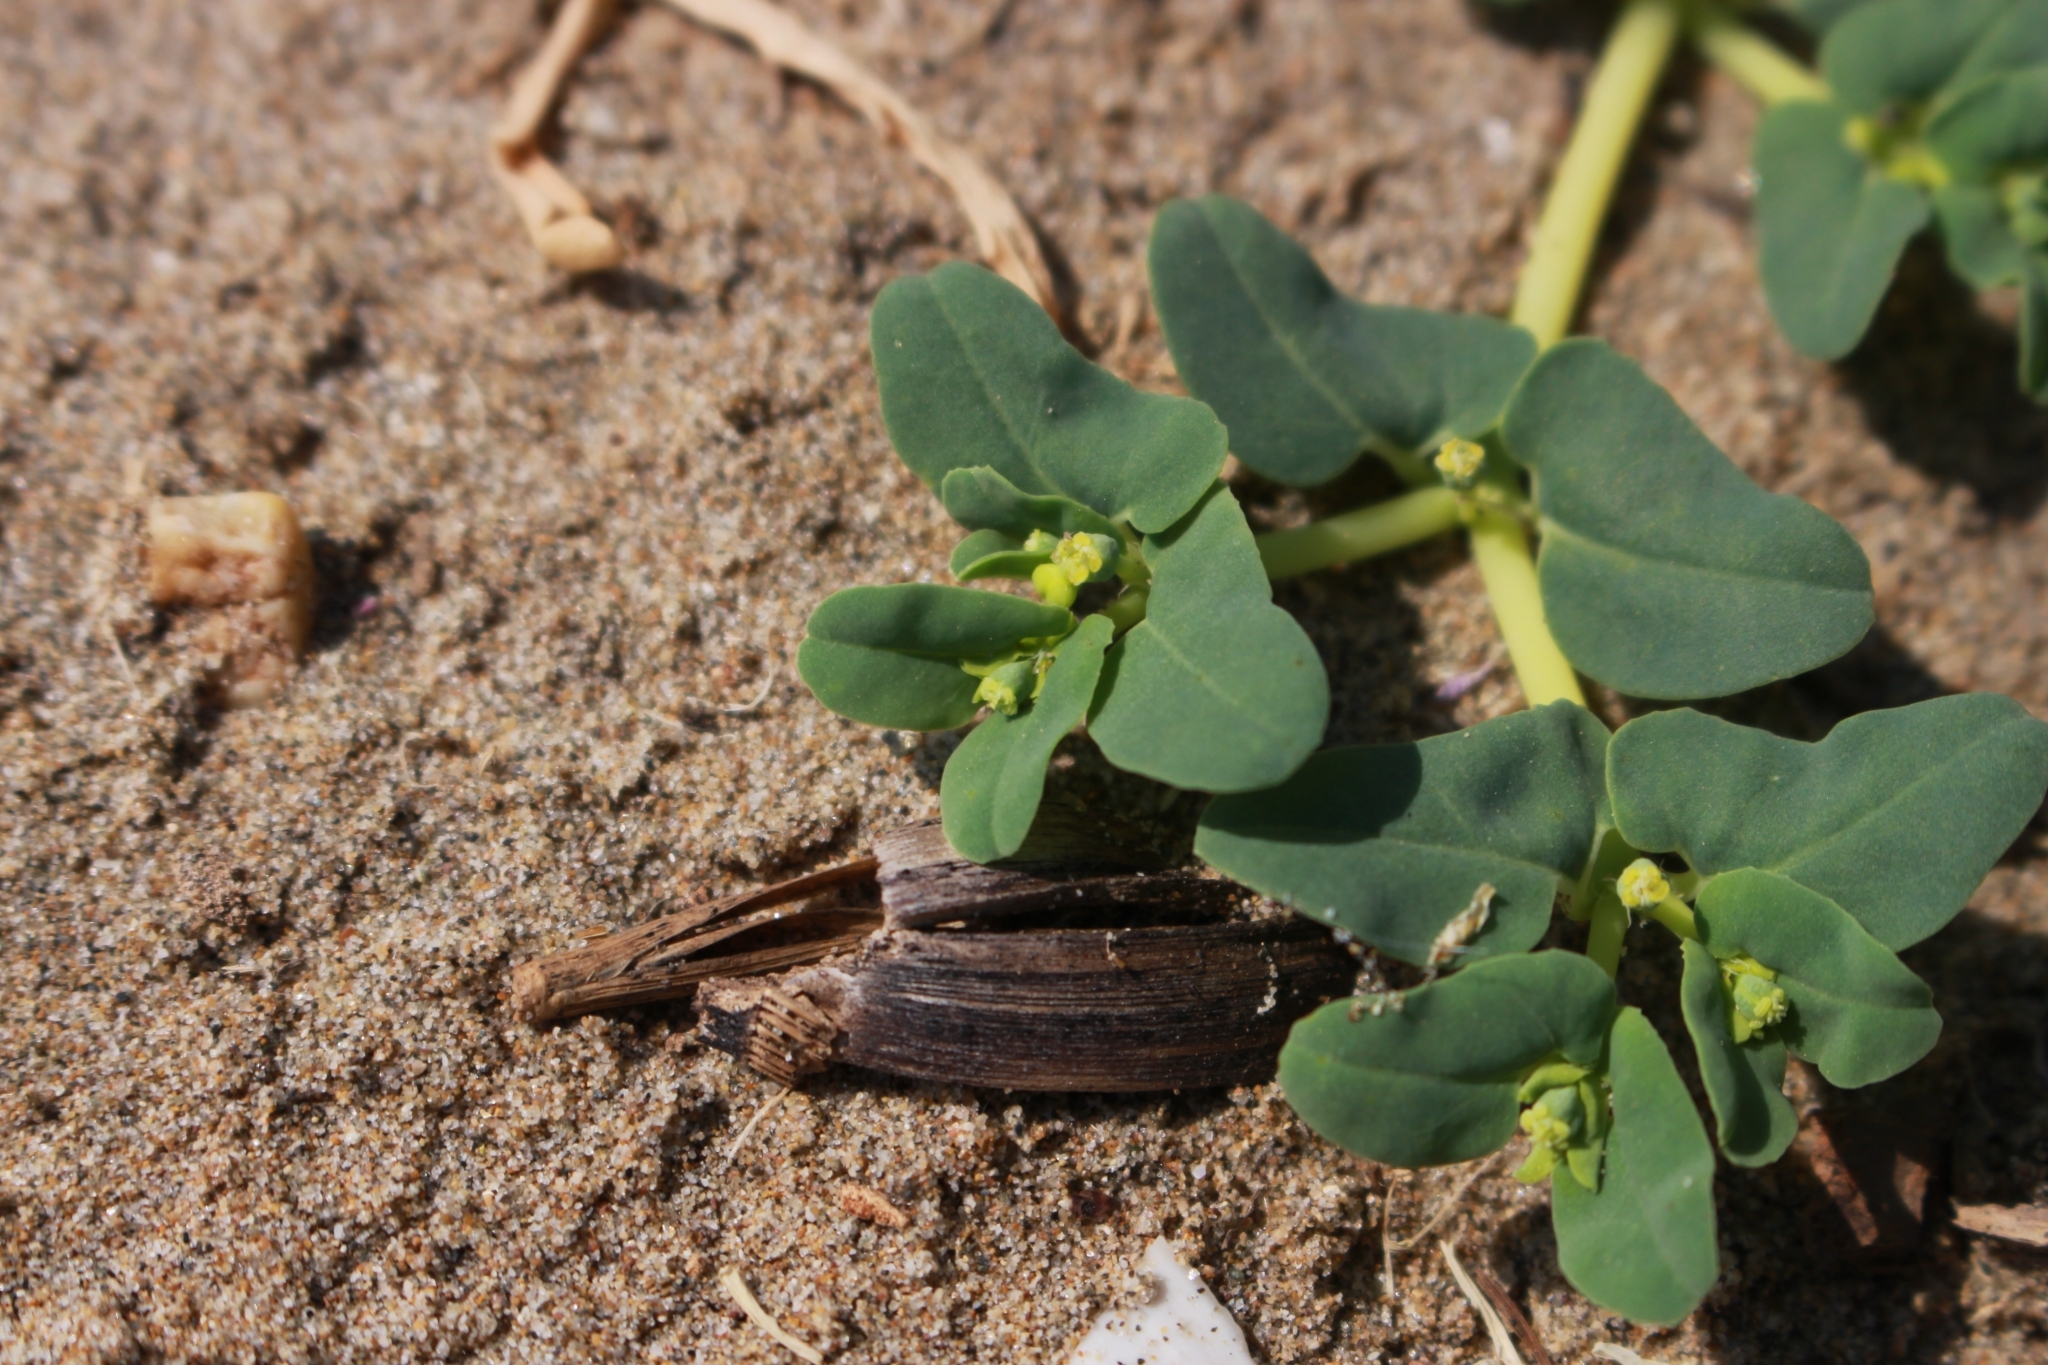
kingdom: Plantae
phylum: Tracheophyta
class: Magnoliopsida
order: Malpighiales
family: Euphorbiaceae
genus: Euphorbia
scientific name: Euphorbia peplis
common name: Purple spurge
